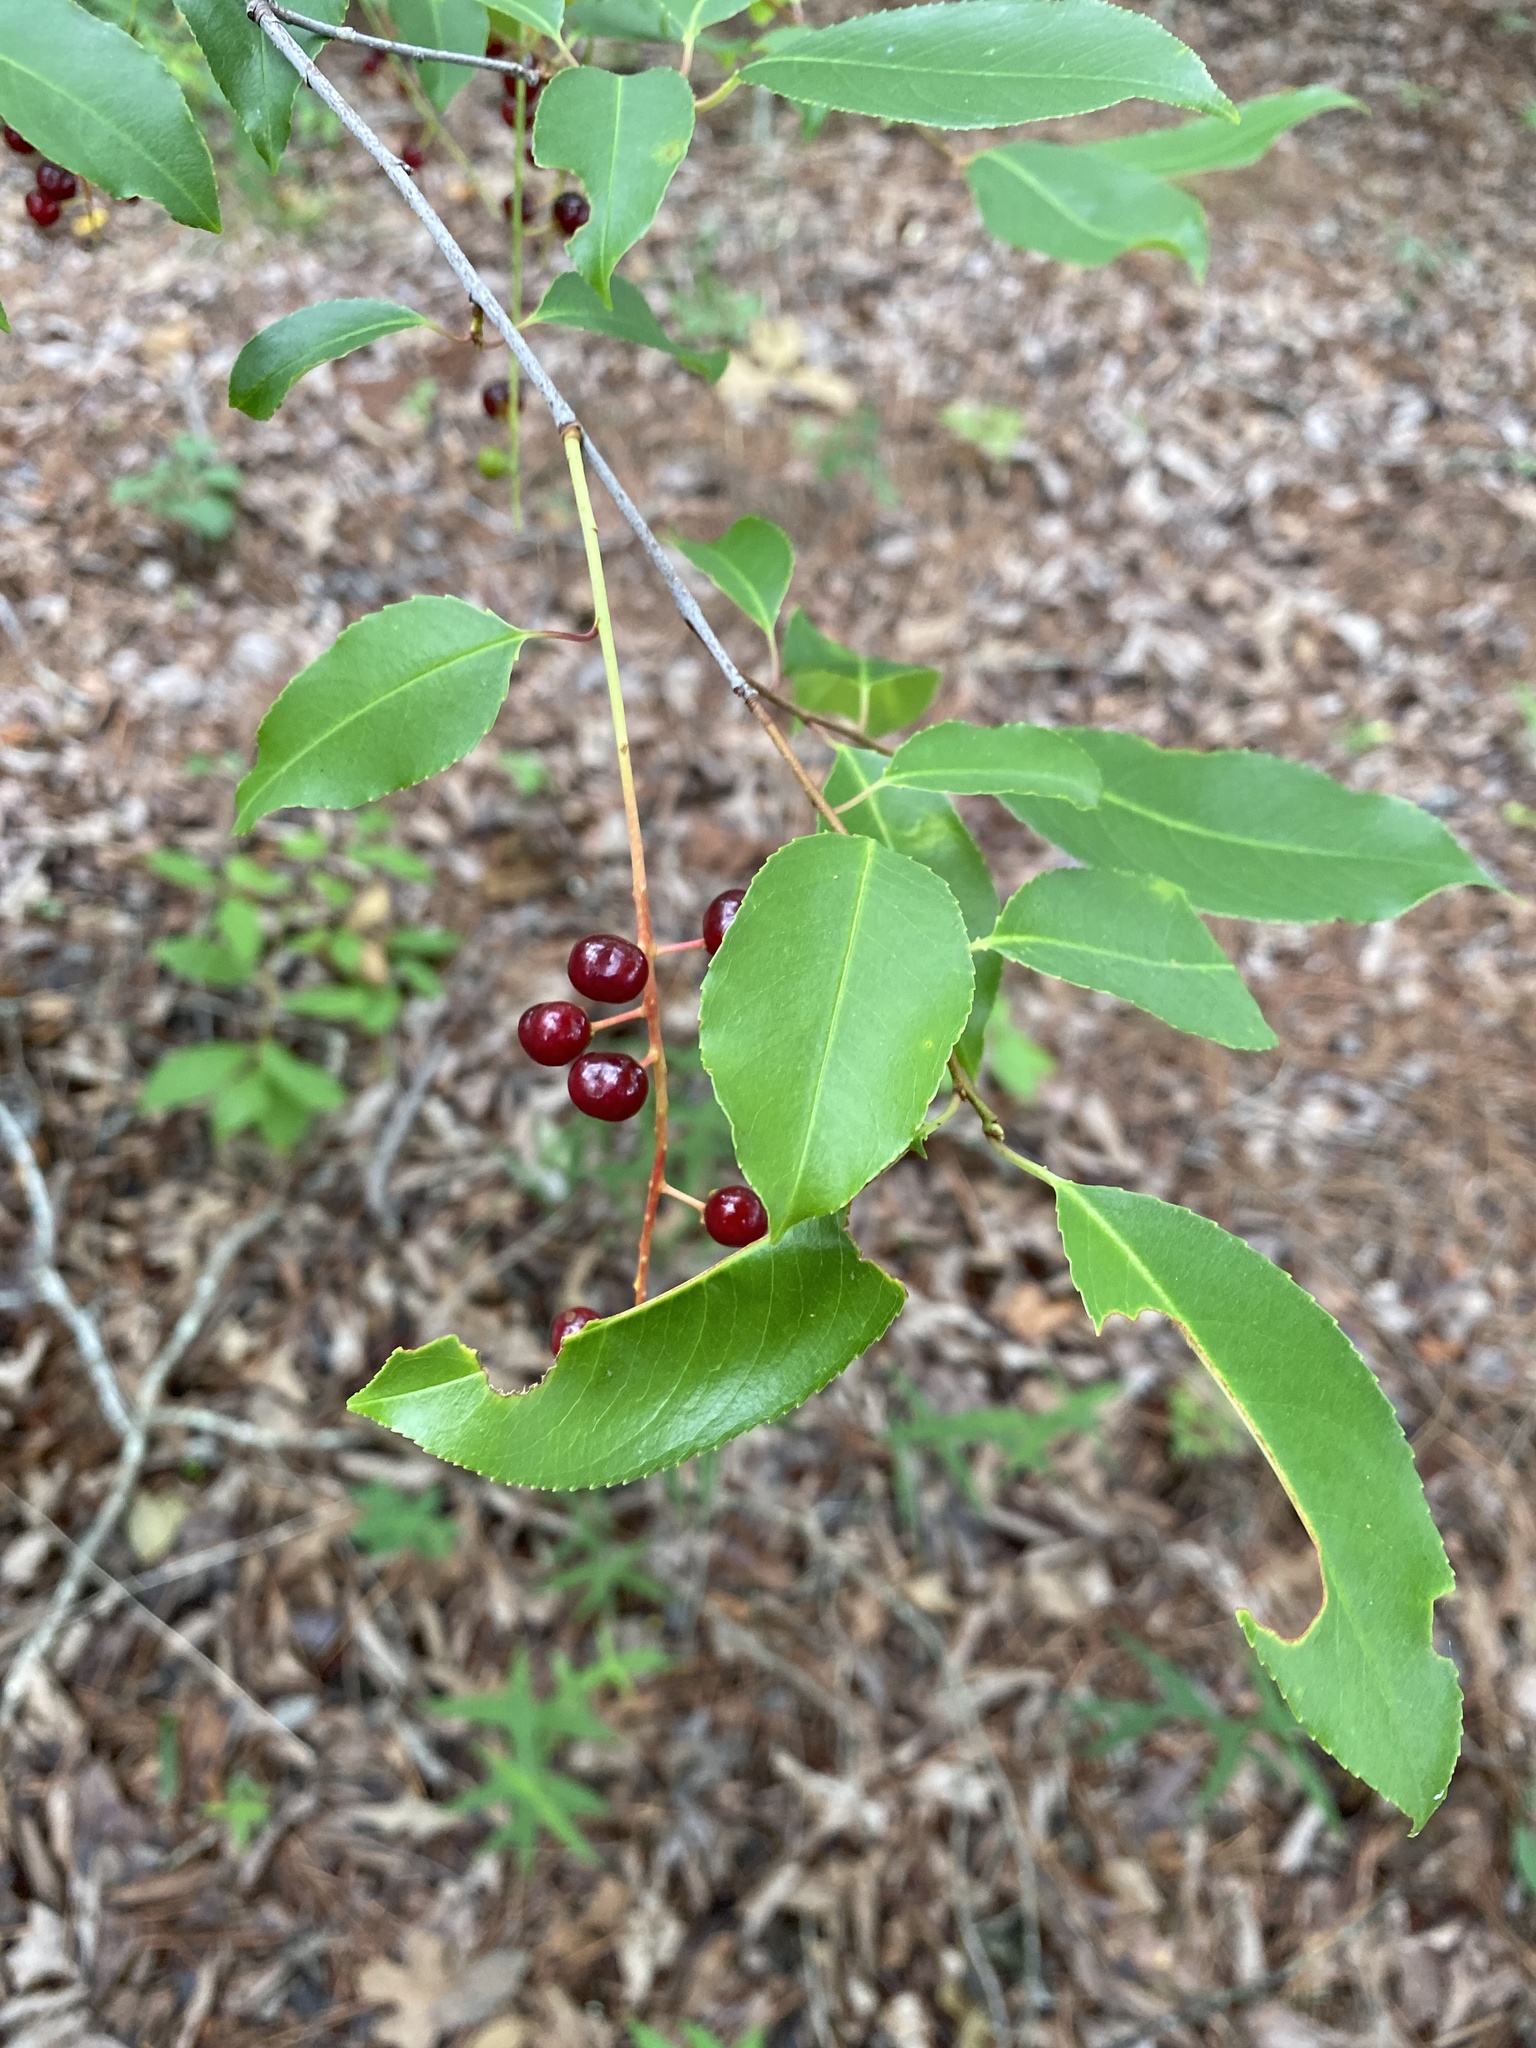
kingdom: Plantae
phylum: Tracheophyta
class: Magnoliopsida
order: Rosales
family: Rosaceae
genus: Prunus
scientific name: Prunus serotina
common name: Black cherry
